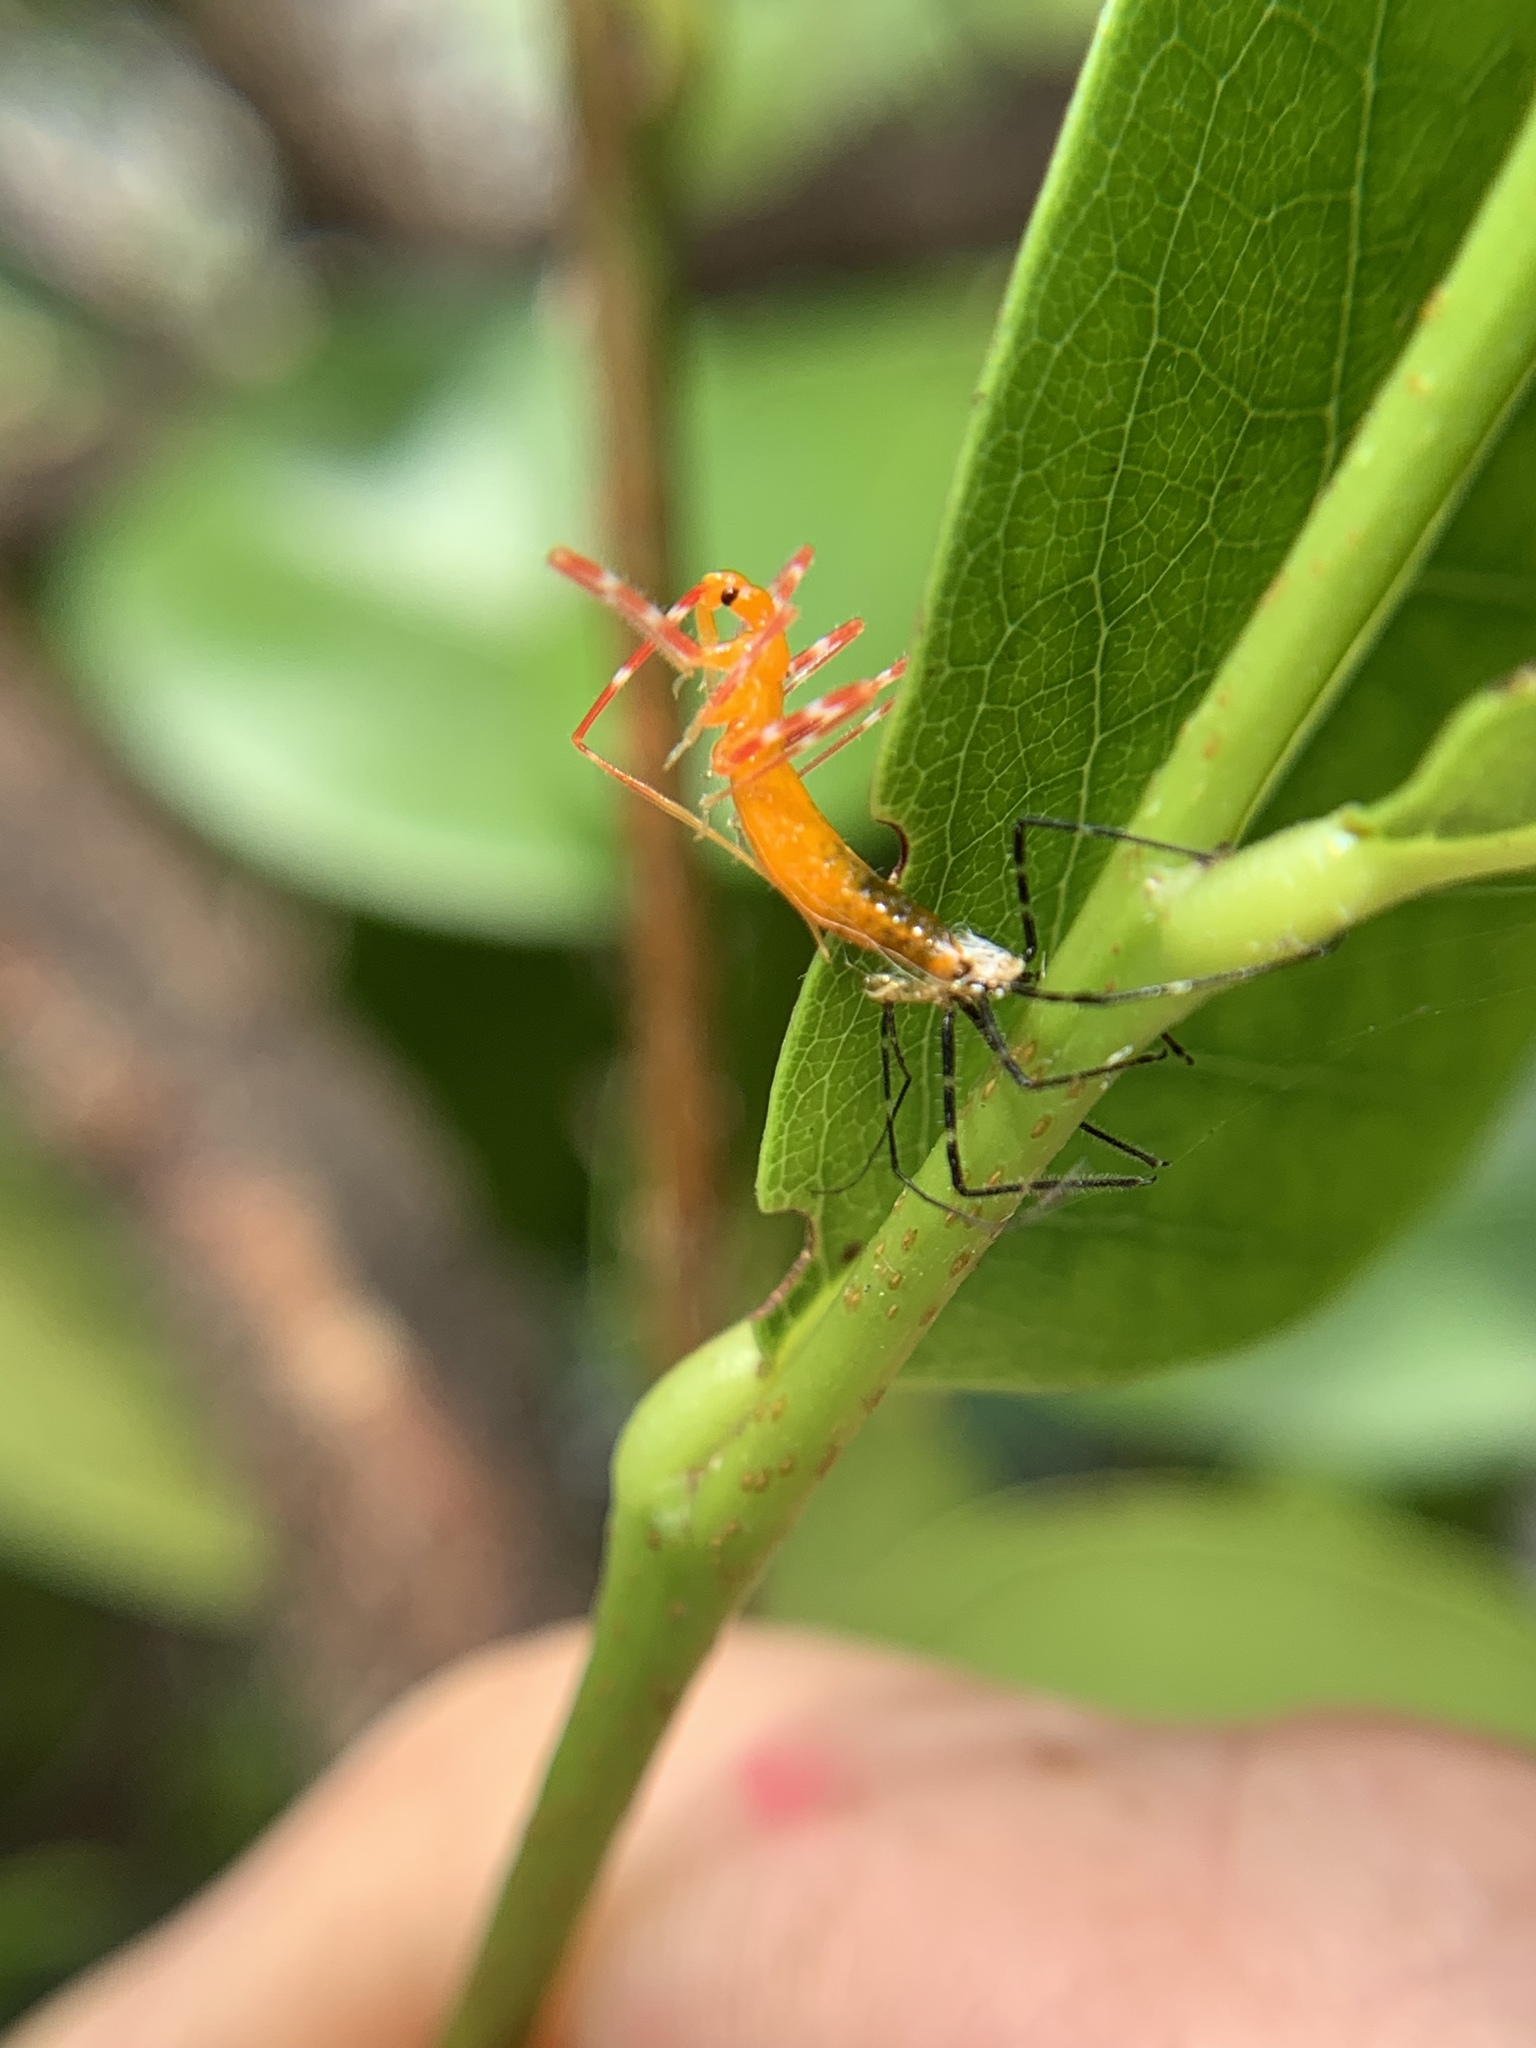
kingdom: Animalia
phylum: Arthropoda
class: Insecta
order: Hemiptera
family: Reduviidae
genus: Zelus
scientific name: Zelus longipes
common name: Milkweed assassin bug
